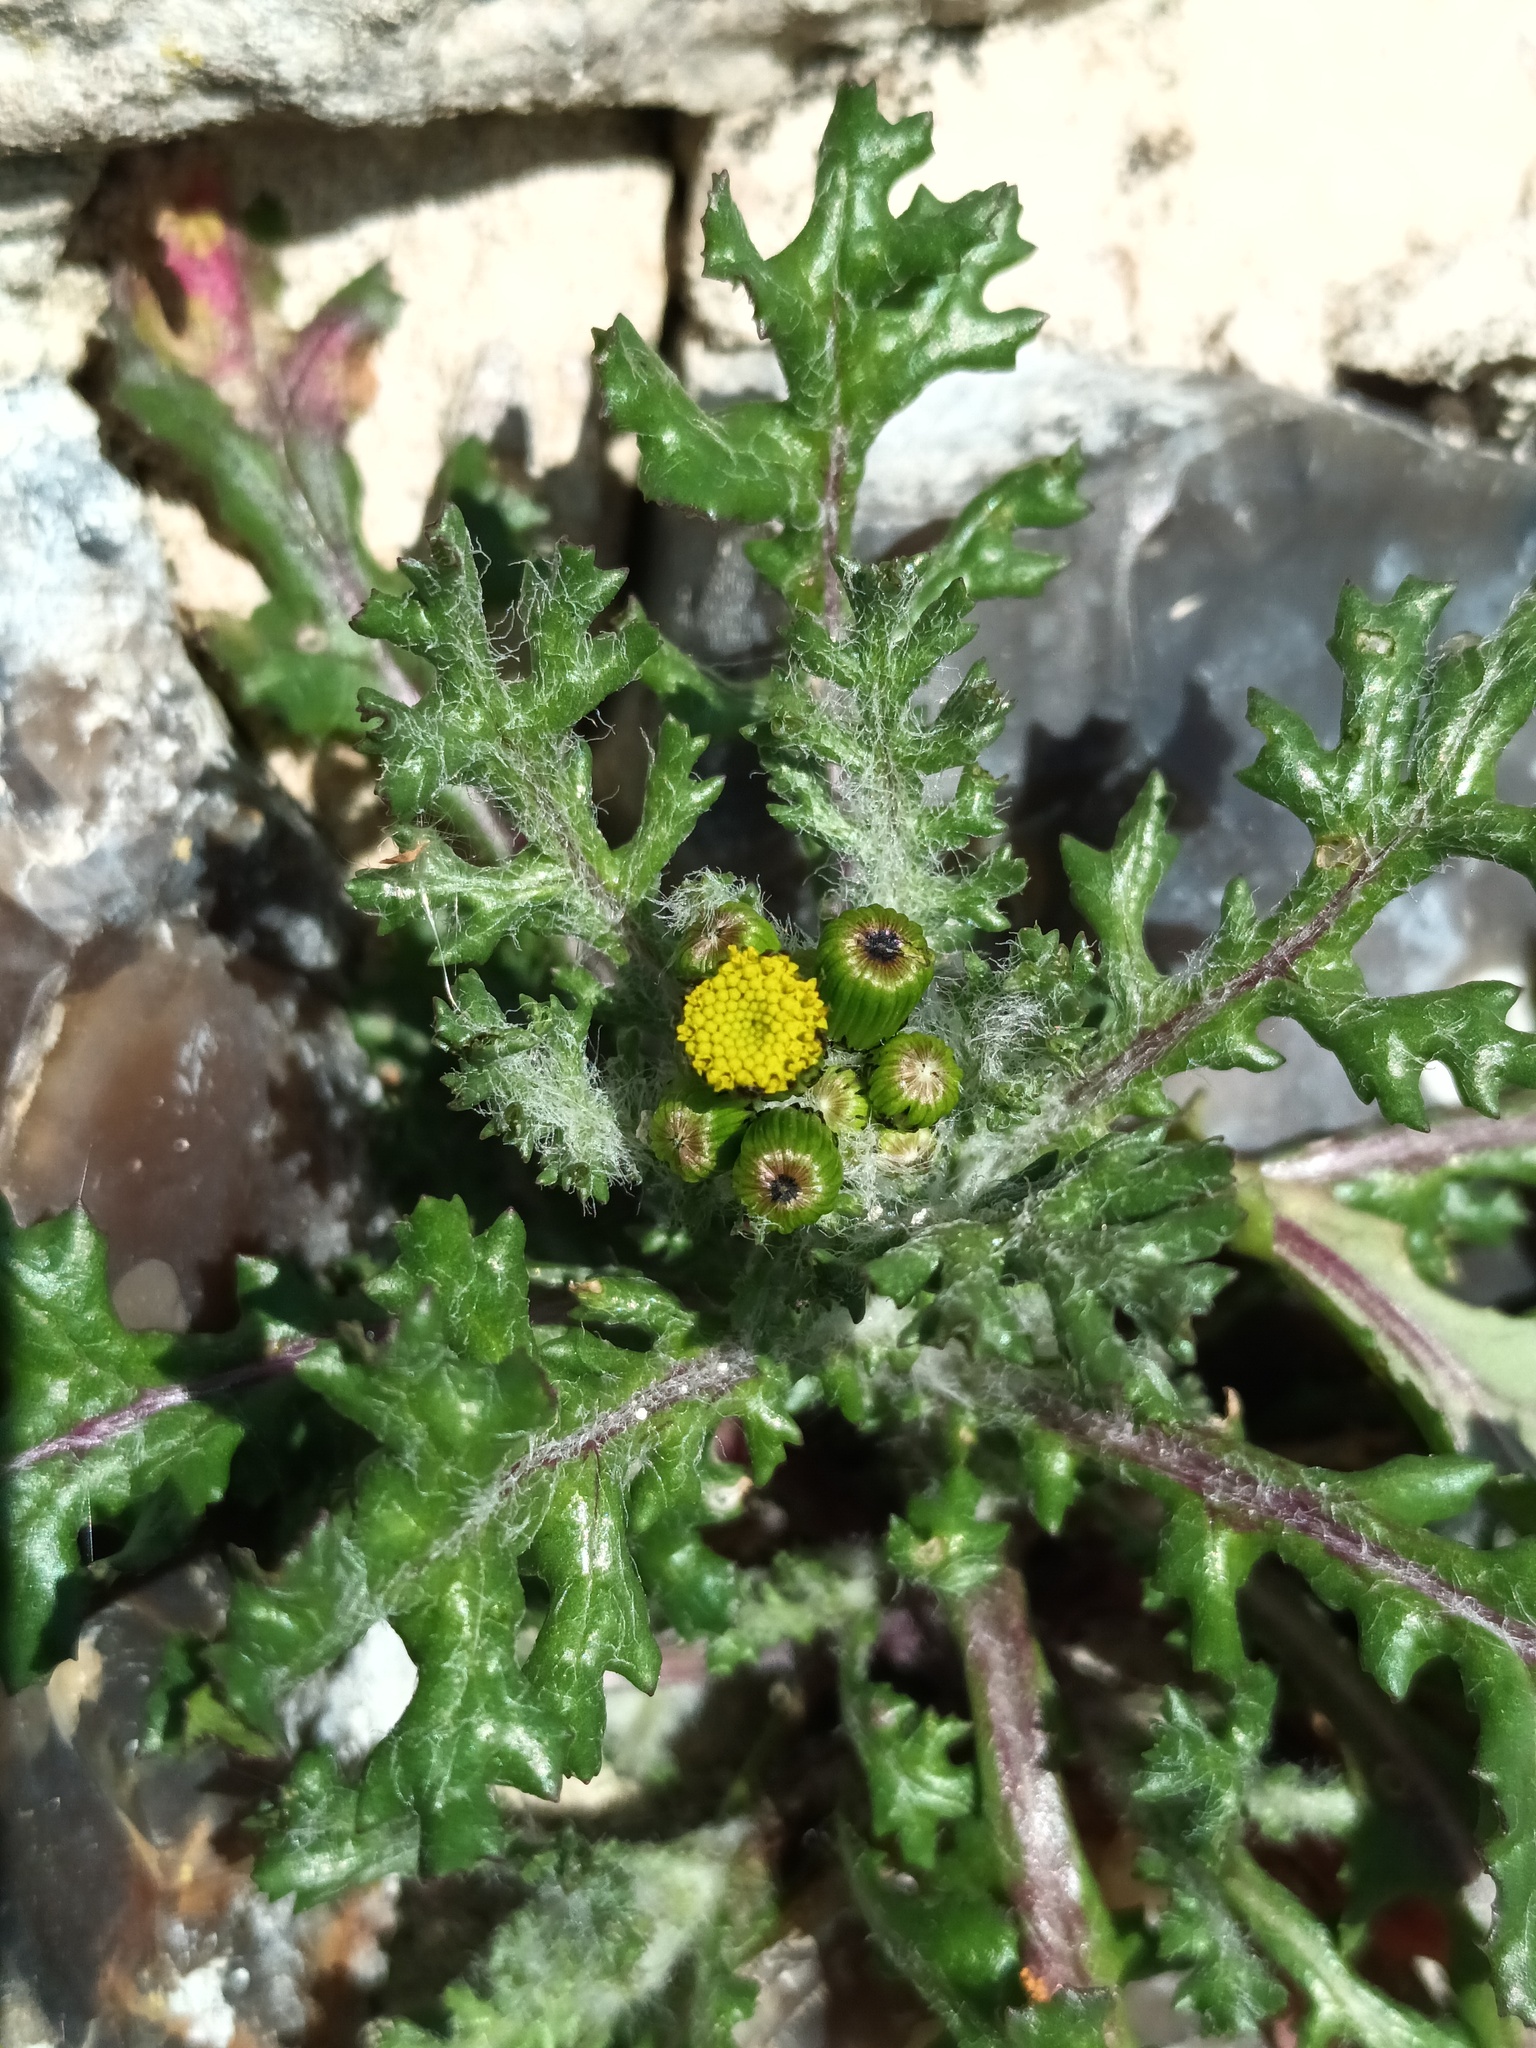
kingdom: Plantae
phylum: Tracheophyta
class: Magnoliopsida
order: Asterales
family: Asteraceae
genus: Senecio
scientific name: Senecio vulgaris
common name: Old-man-in-the-spring
